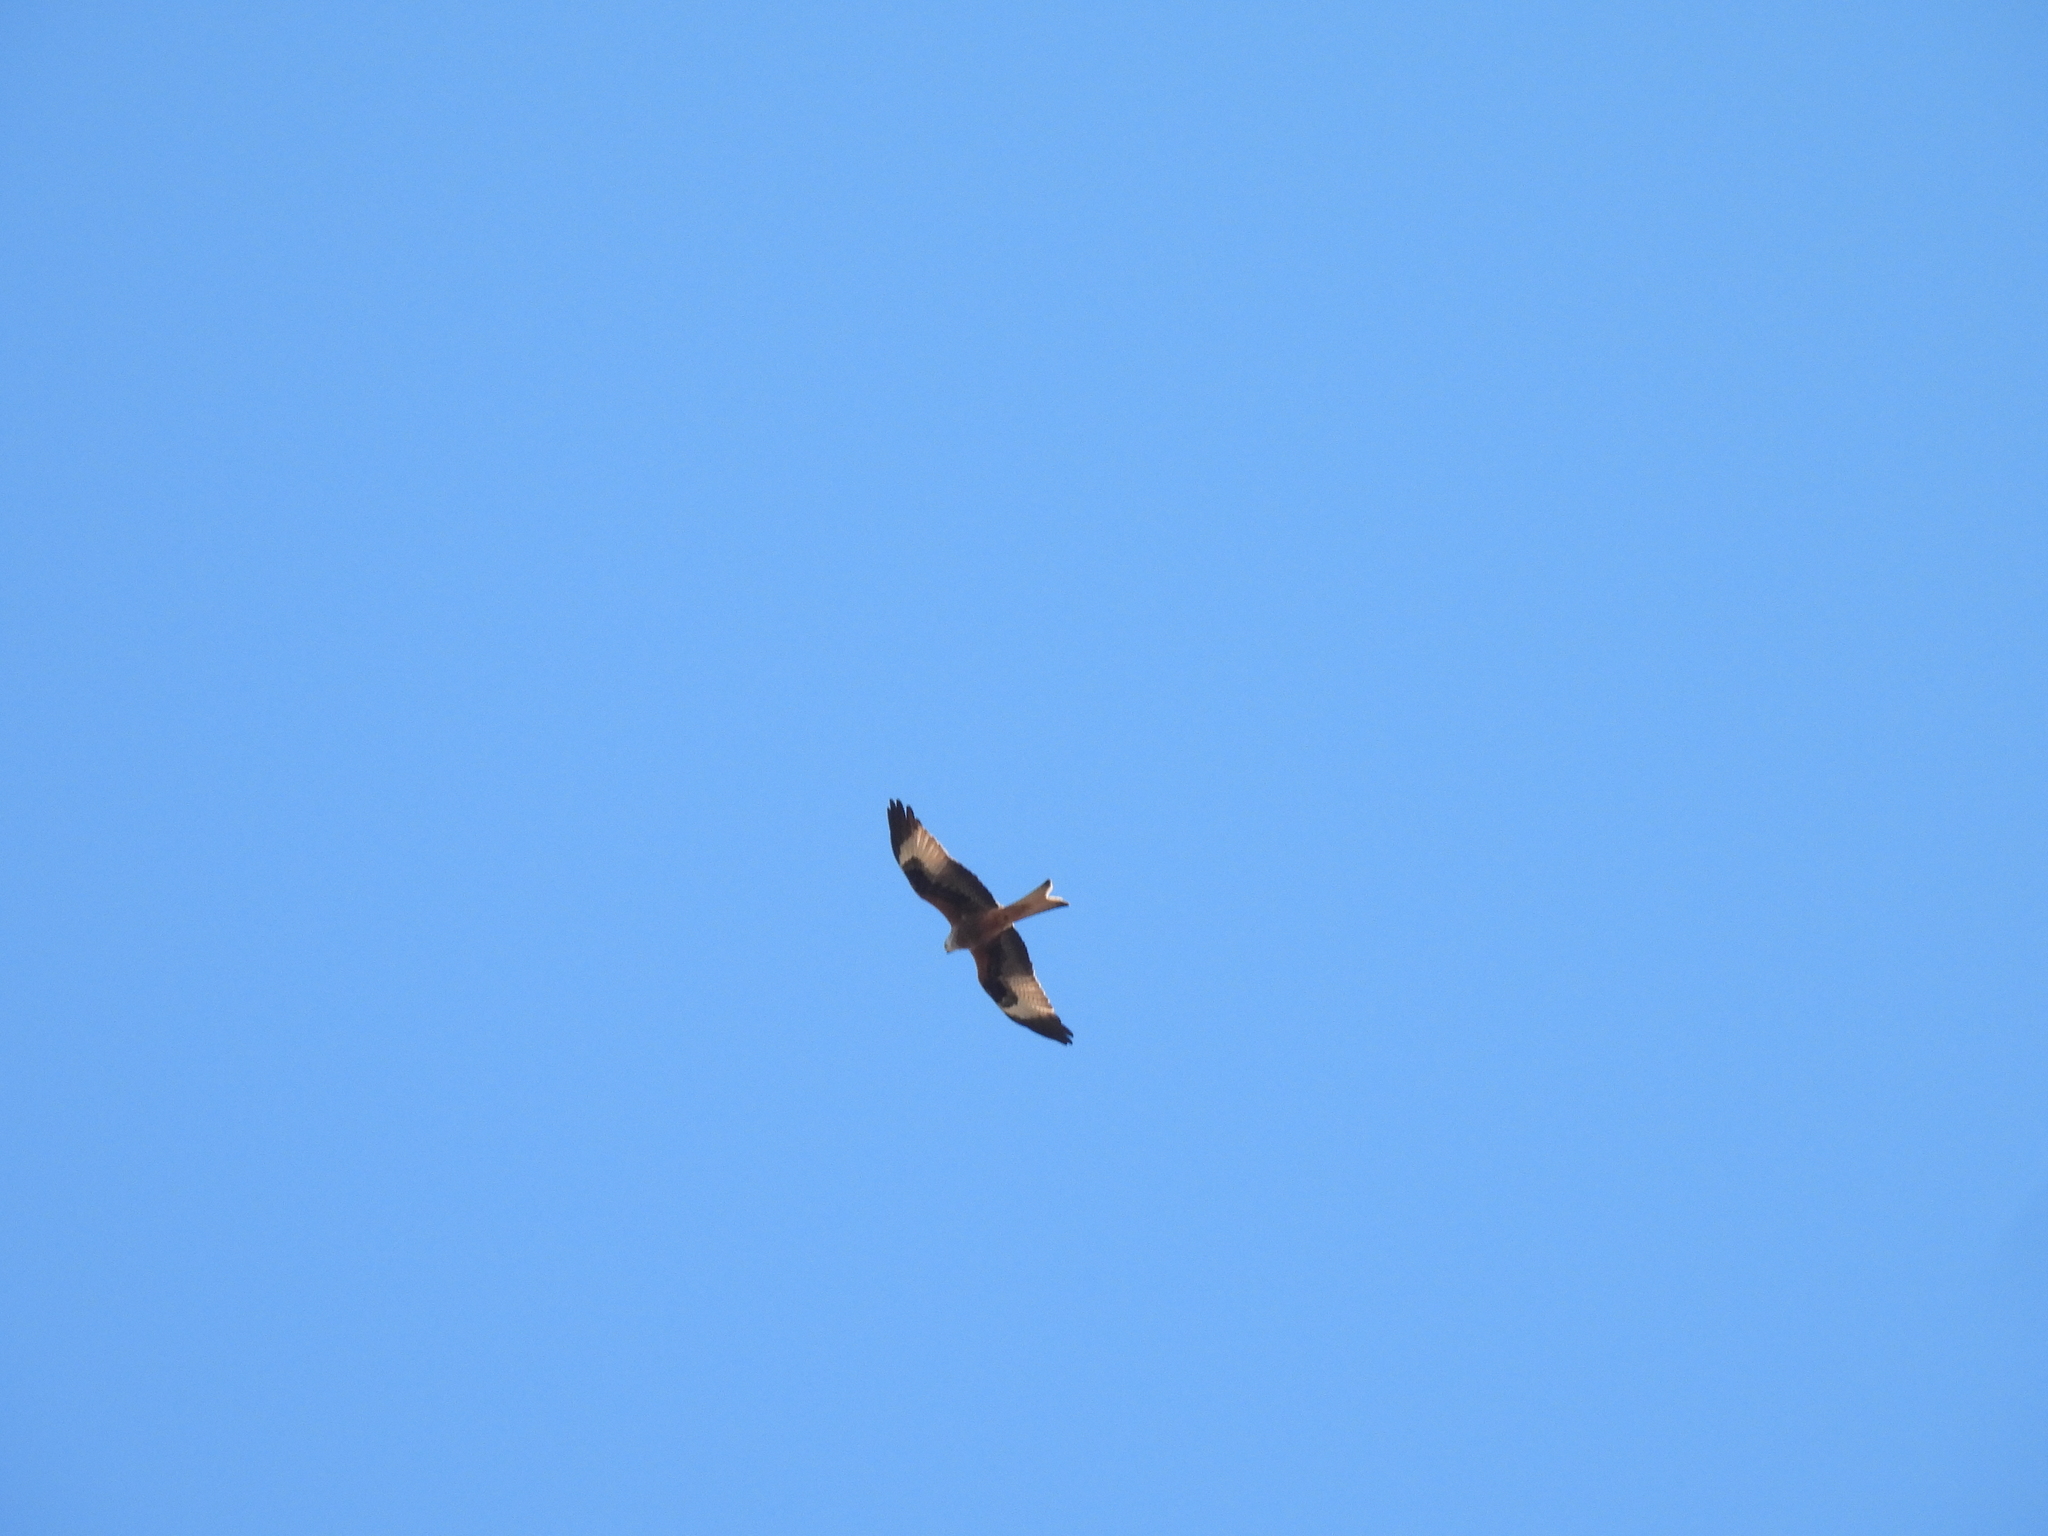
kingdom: Animalia
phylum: Chordata
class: Aves
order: Accipitriformes
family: Accipitridae
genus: Milvus
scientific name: Milvus milvus
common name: Red kite
